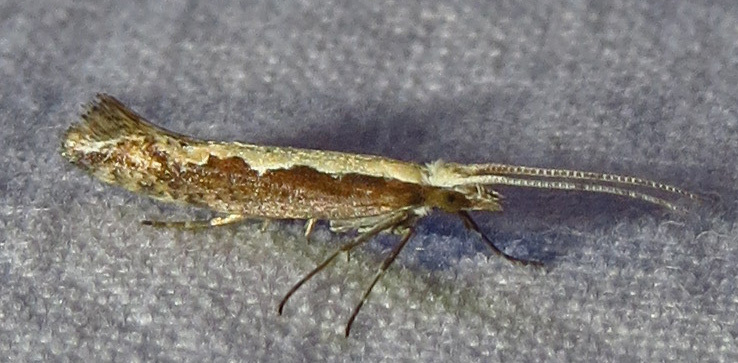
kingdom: Animalia
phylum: Arthropoda
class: Insecta
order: Lepidoptera
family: Plutellidae
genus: Plutella
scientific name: Plutella xylostella
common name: Diamond-back moth
